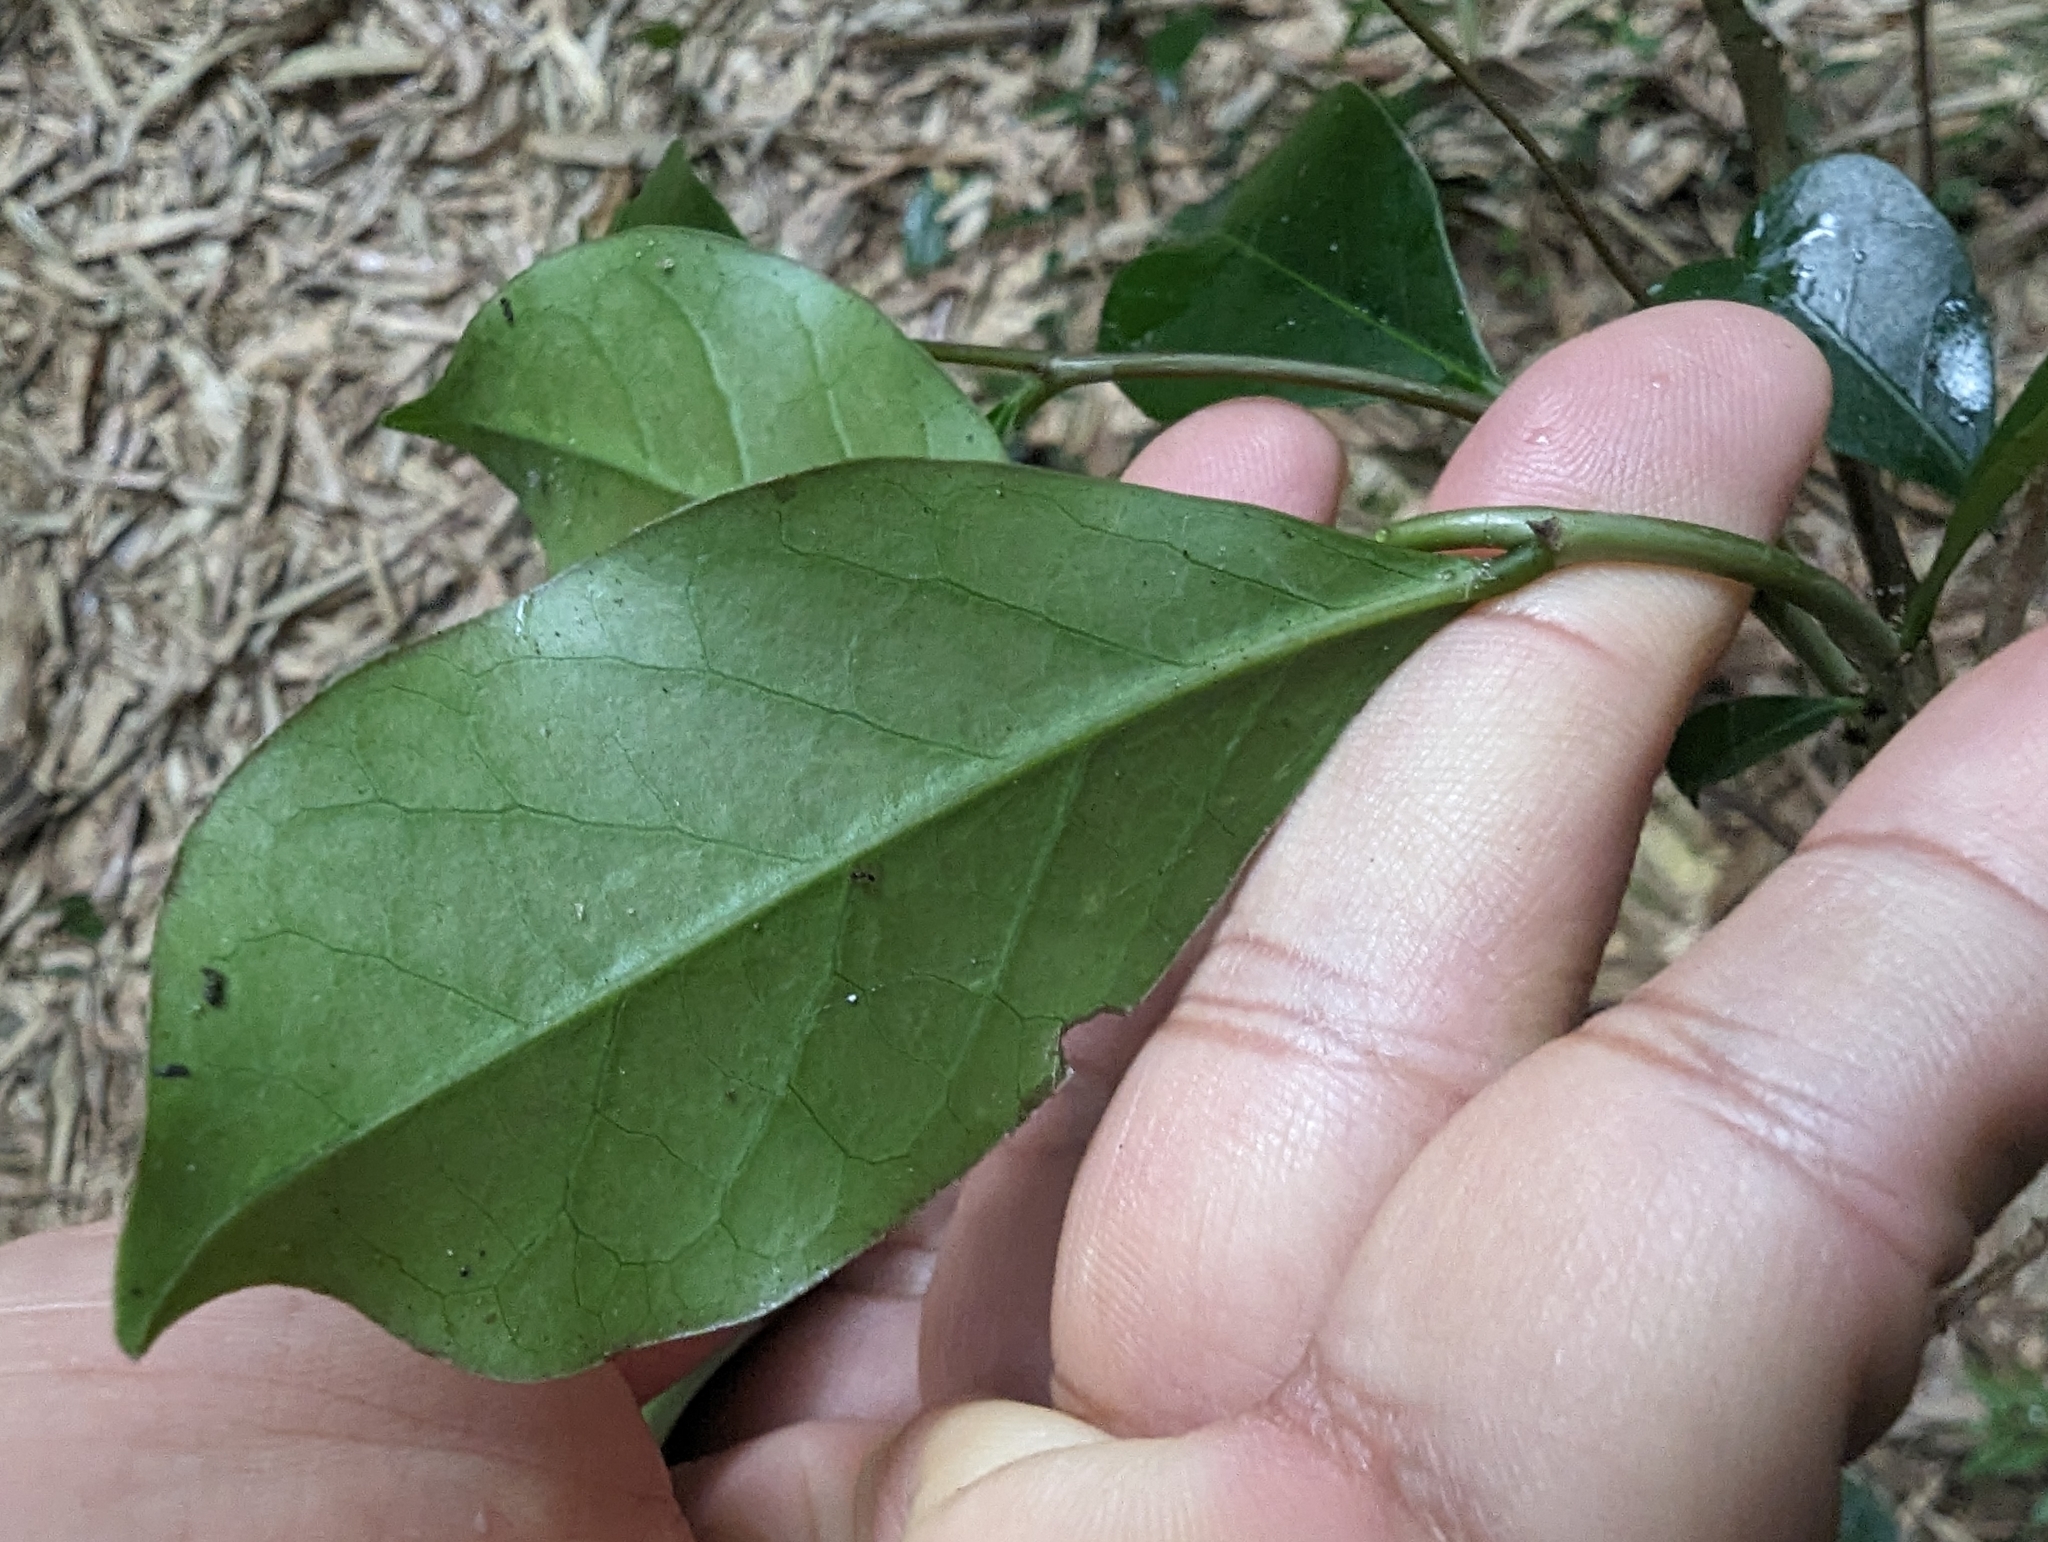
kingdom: Plantae
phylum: Tracheophyta
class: Magnoliopsida
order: Malpighiales
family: Phyllanthaceae
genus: Glochidion
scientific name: Glochidion rubrum
